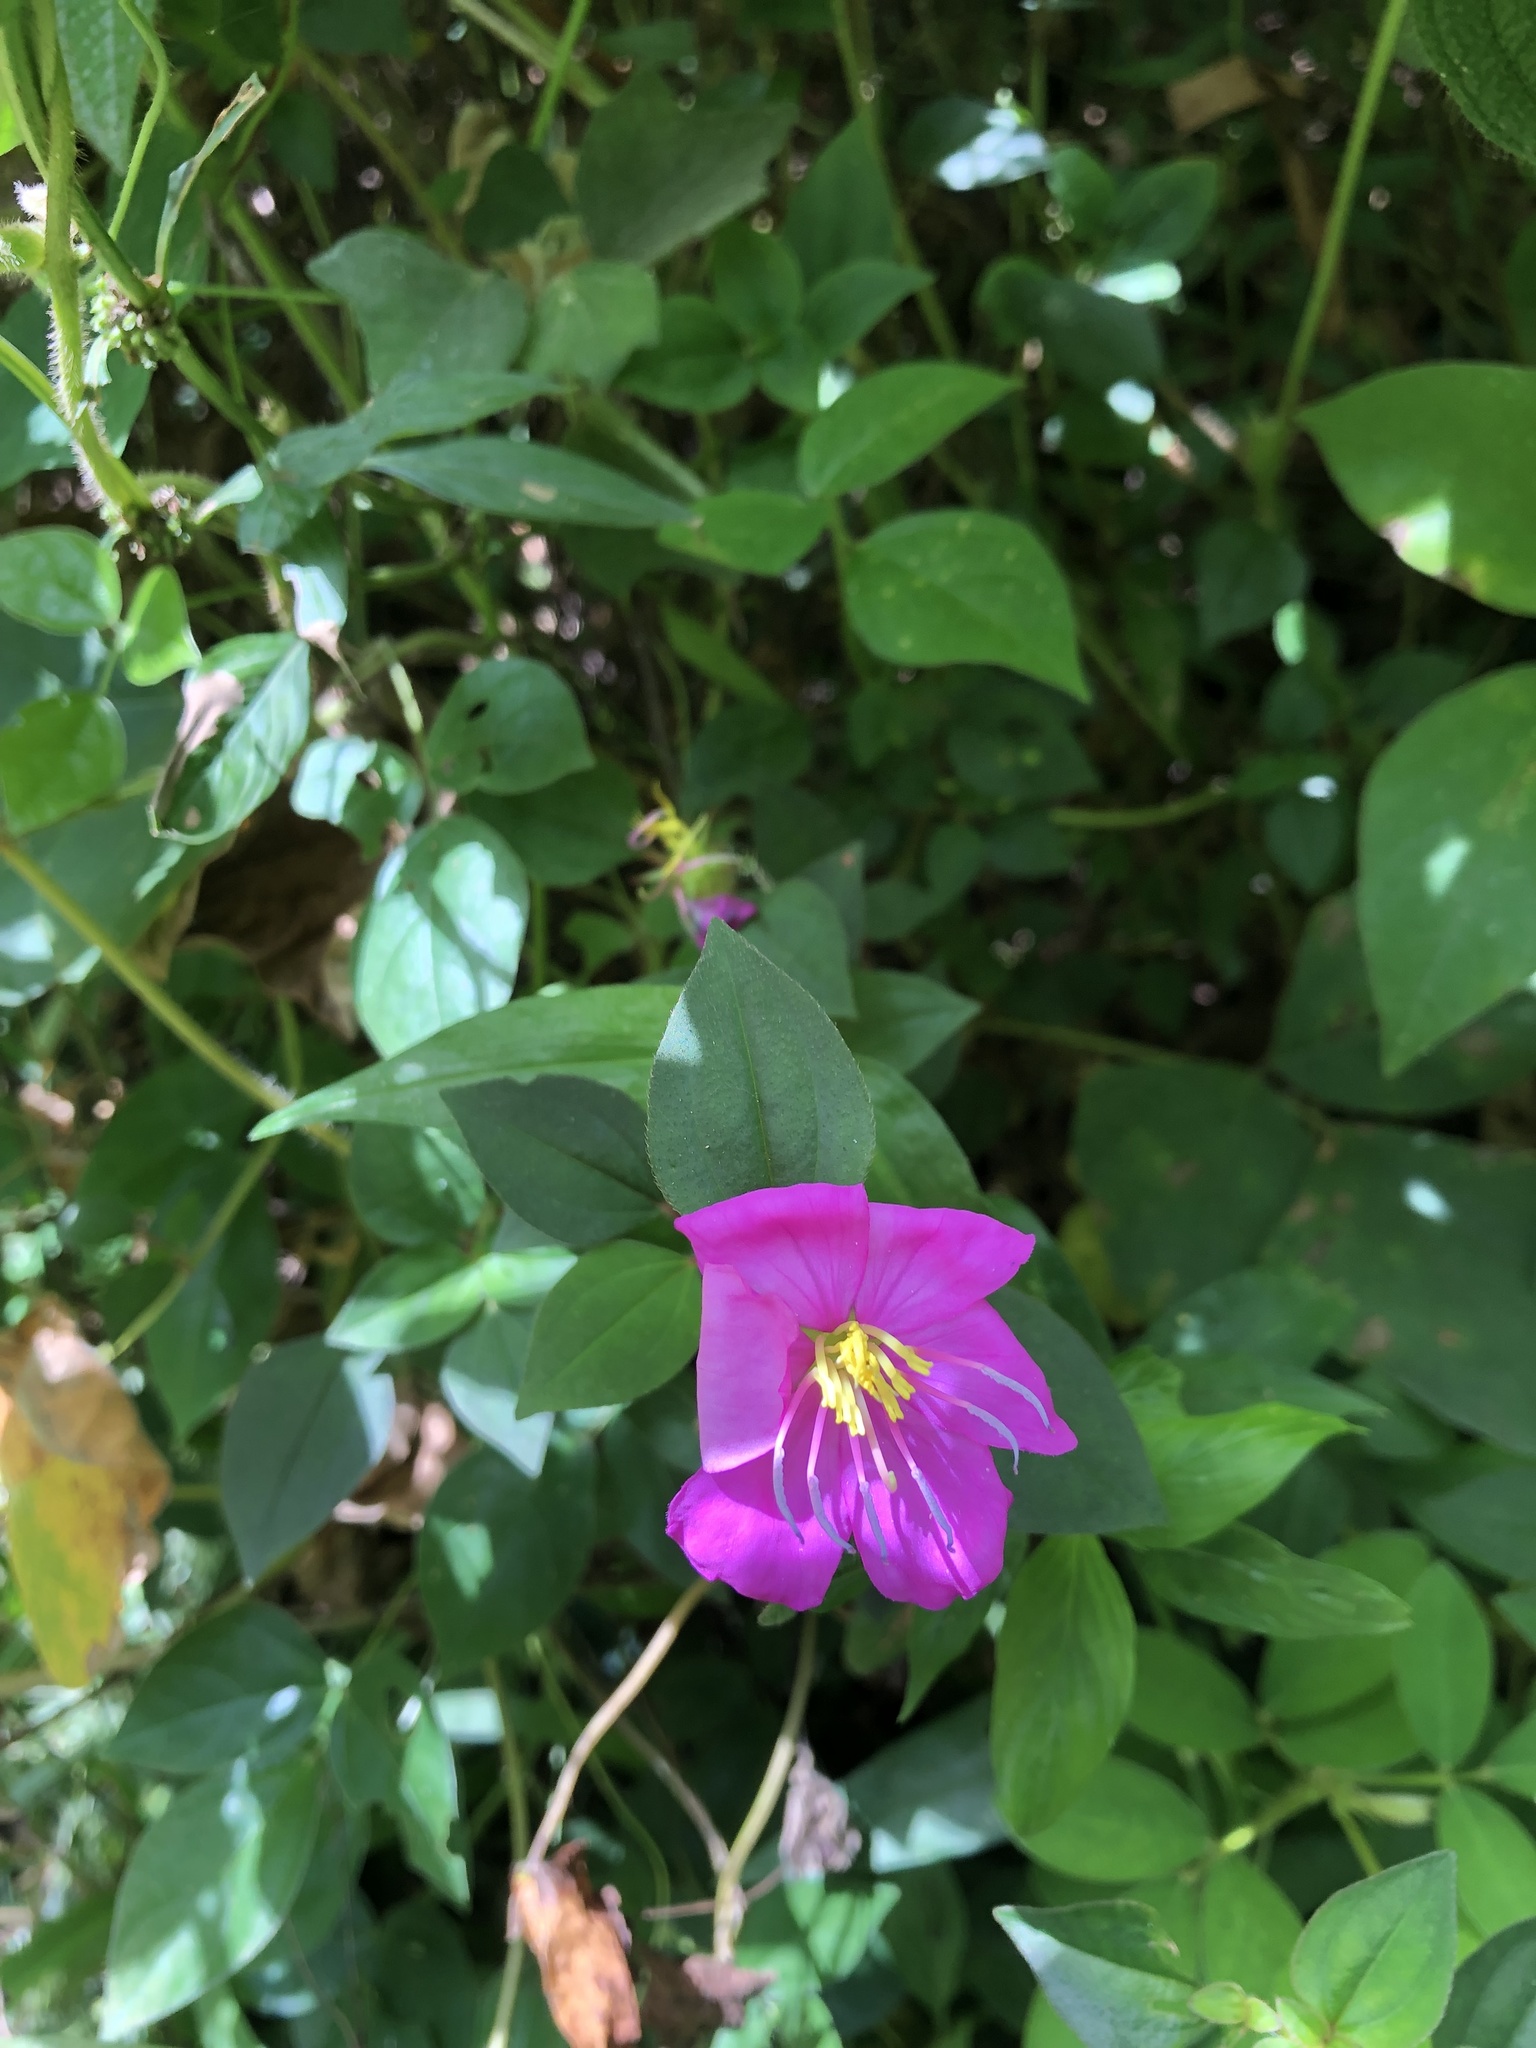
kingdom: Plantae
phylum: Tracheophyta
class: Magnoliopsida
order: Myrtales
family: Melastomataceae
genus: Heterotis
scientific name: Heterotis rotundifolia
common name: Pinklady
